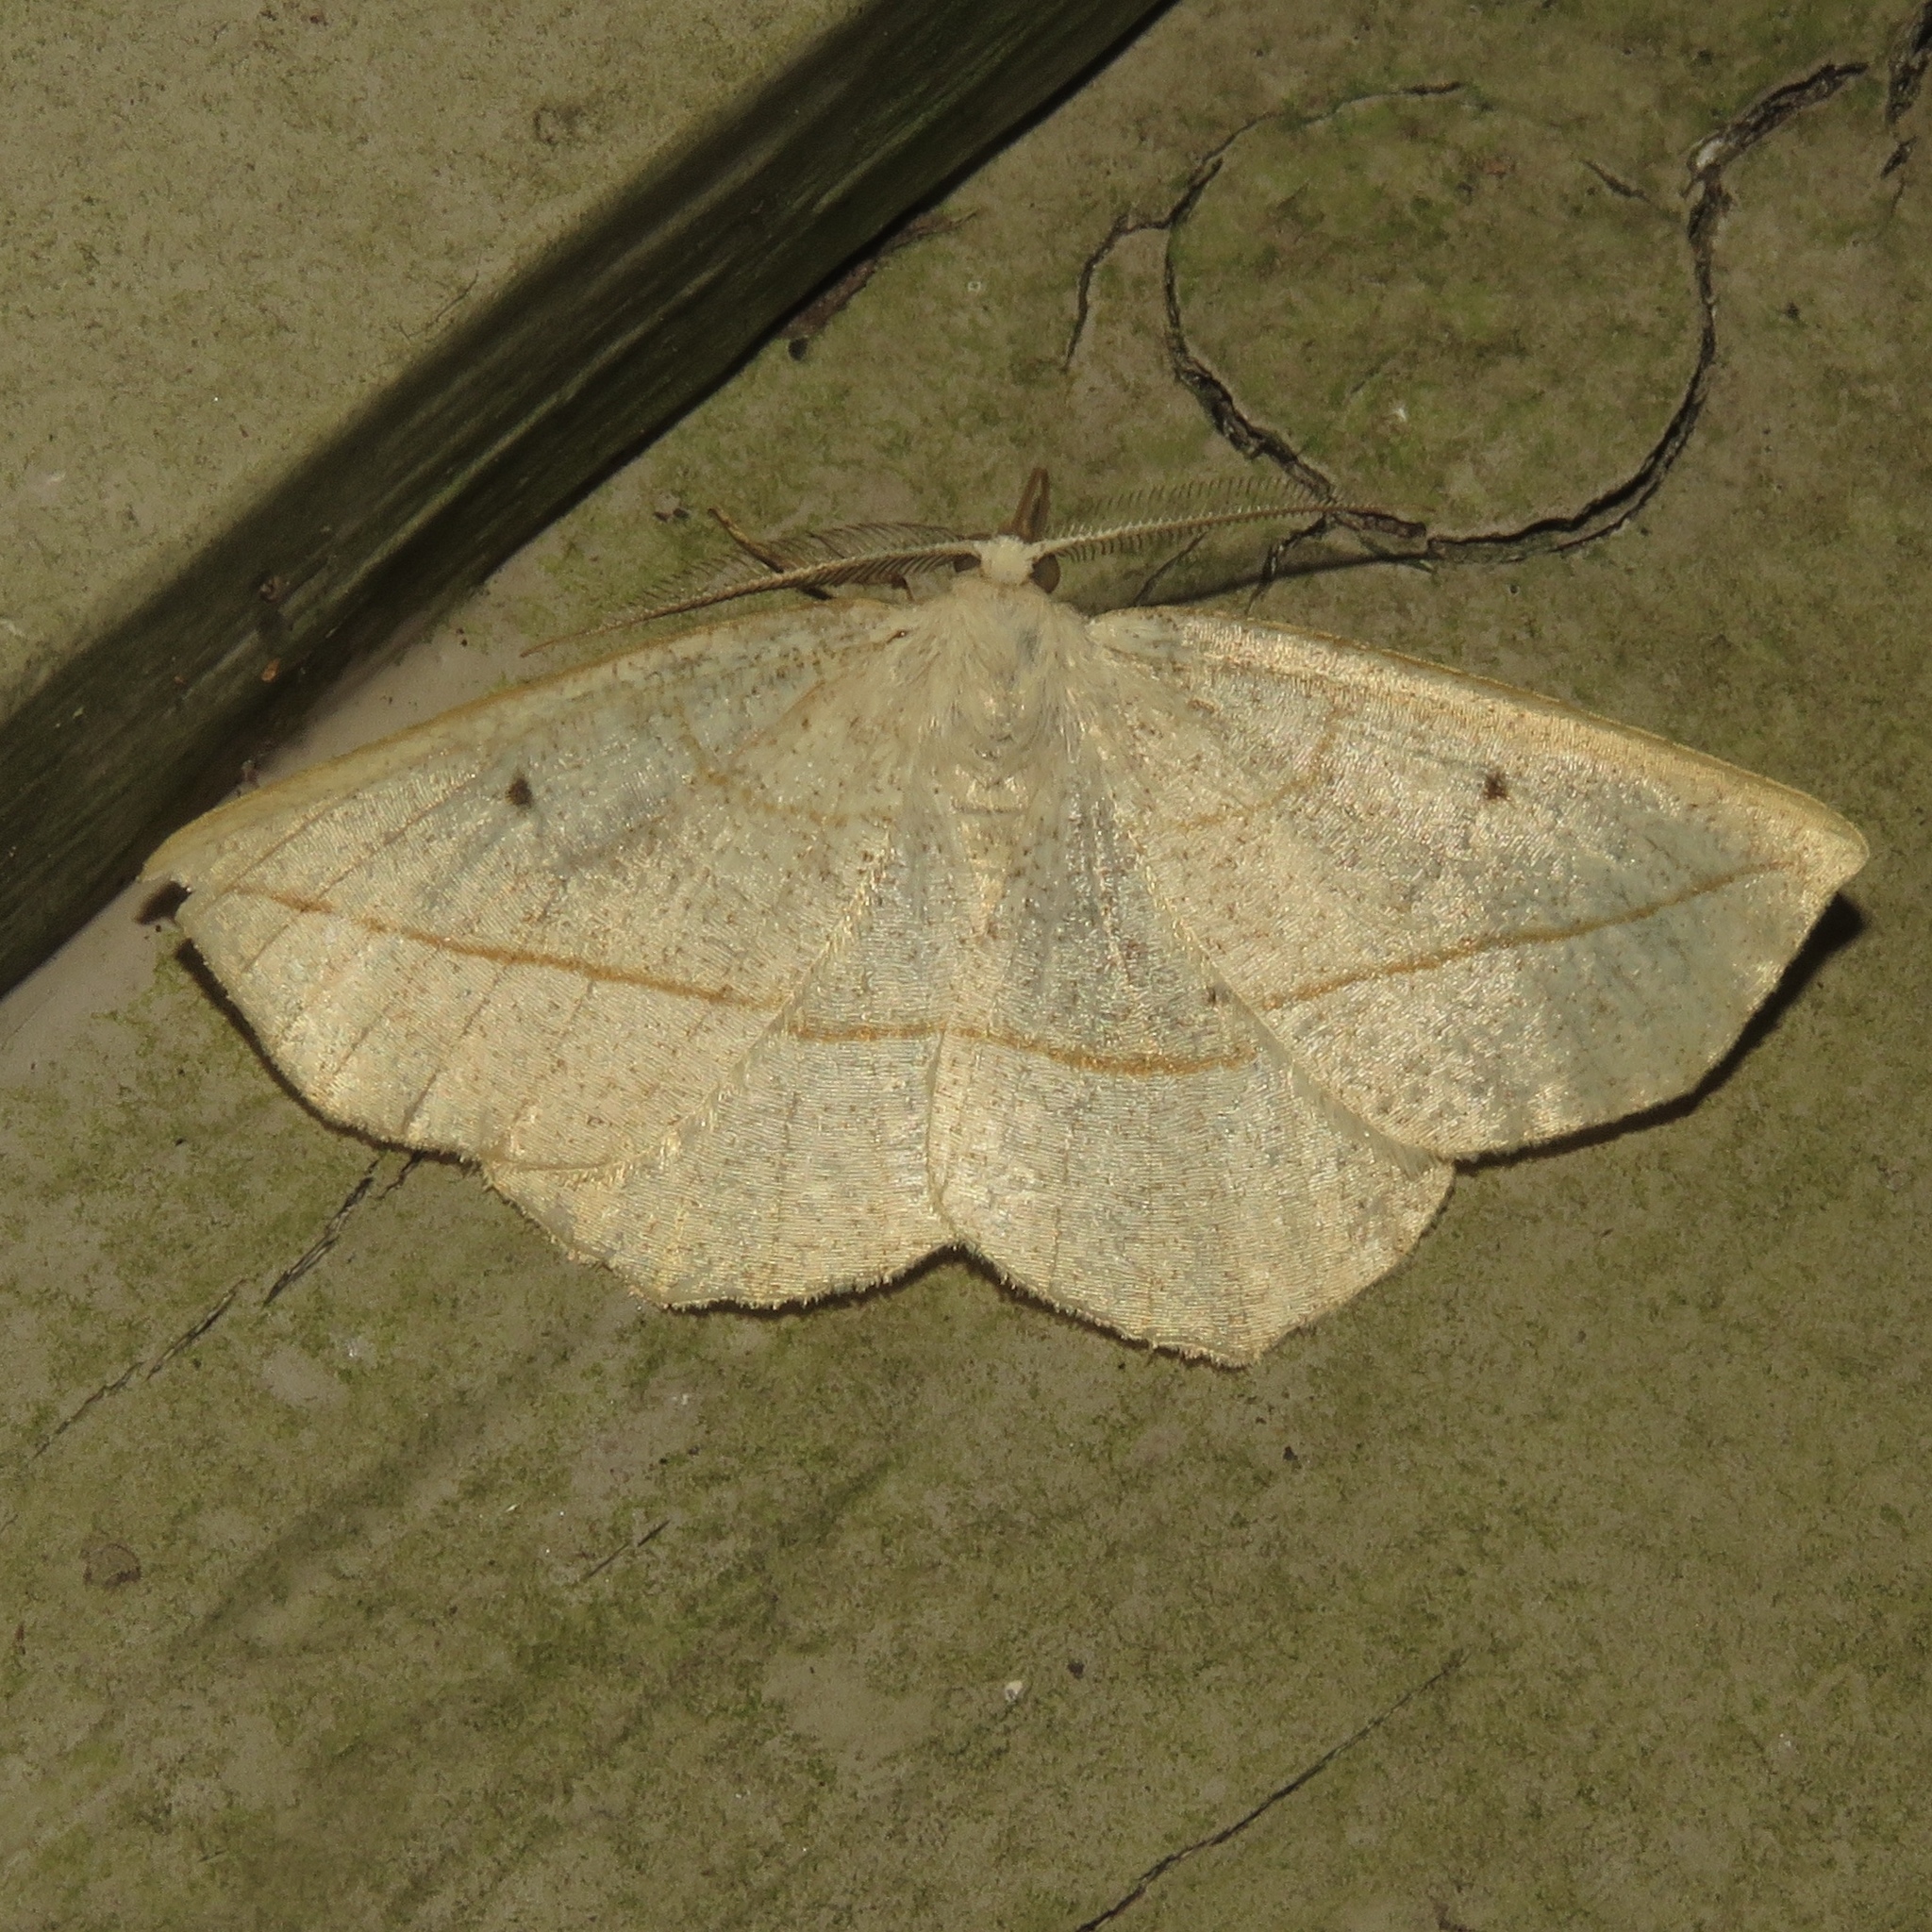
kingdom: Animalia
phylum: Arthropoda
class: Insecta
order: Lepidoptera
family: Geometridae
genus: Eusarca
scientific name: Eusarca confusaria
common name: Confused eusarca
